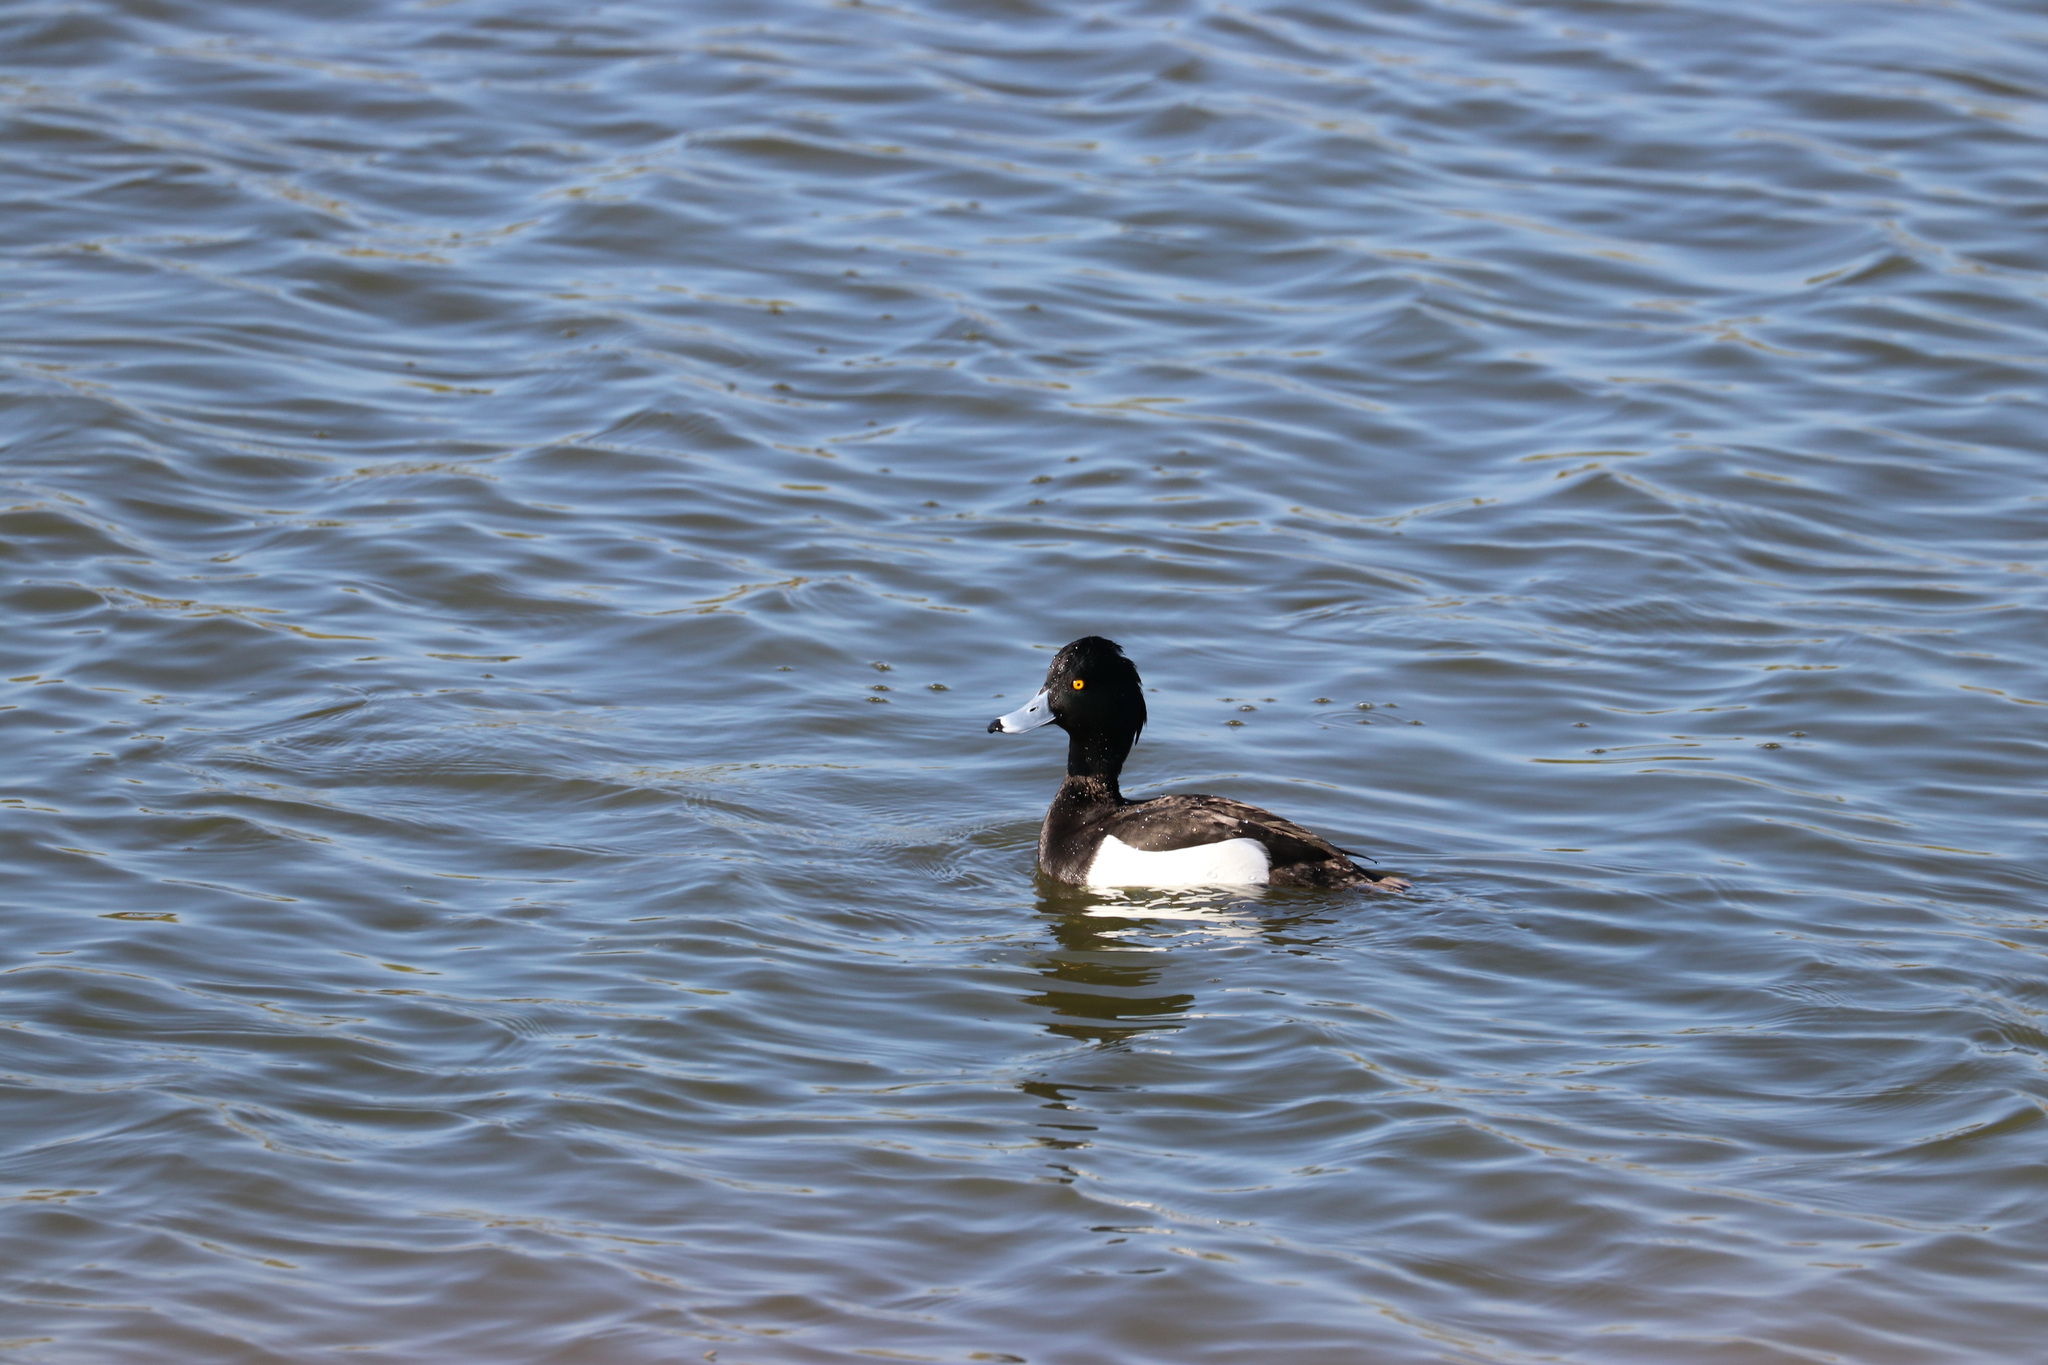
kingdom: Animalia
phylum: Chordata
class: Aves
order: Anseriformes
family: Anatidae
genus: Aythya
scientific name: Aythya fuligula
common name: Tufted duck
